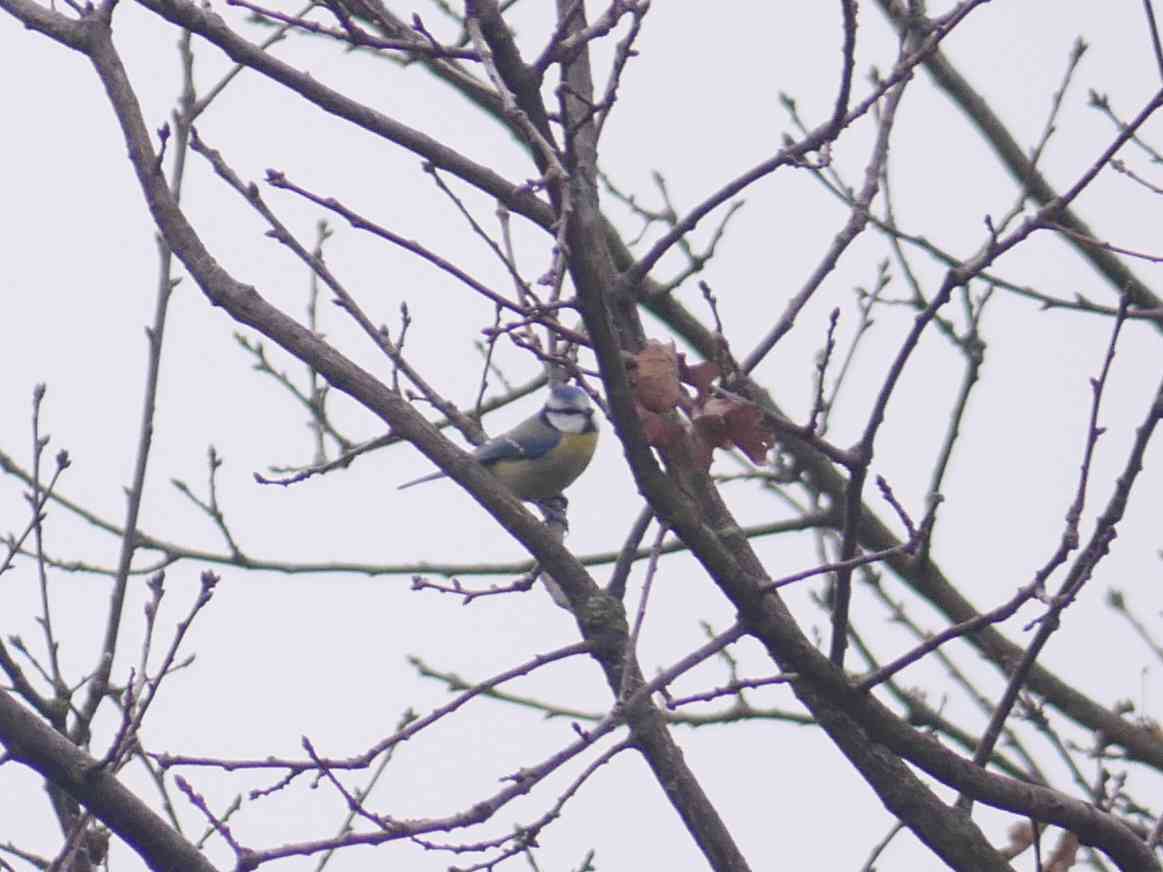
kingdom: Animalia
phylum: Chordata
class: Aves
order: Passeriformes
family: Paridae
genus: Cyanistes
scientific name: Cyanistes caeruleus
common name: Eurasian blue tit
